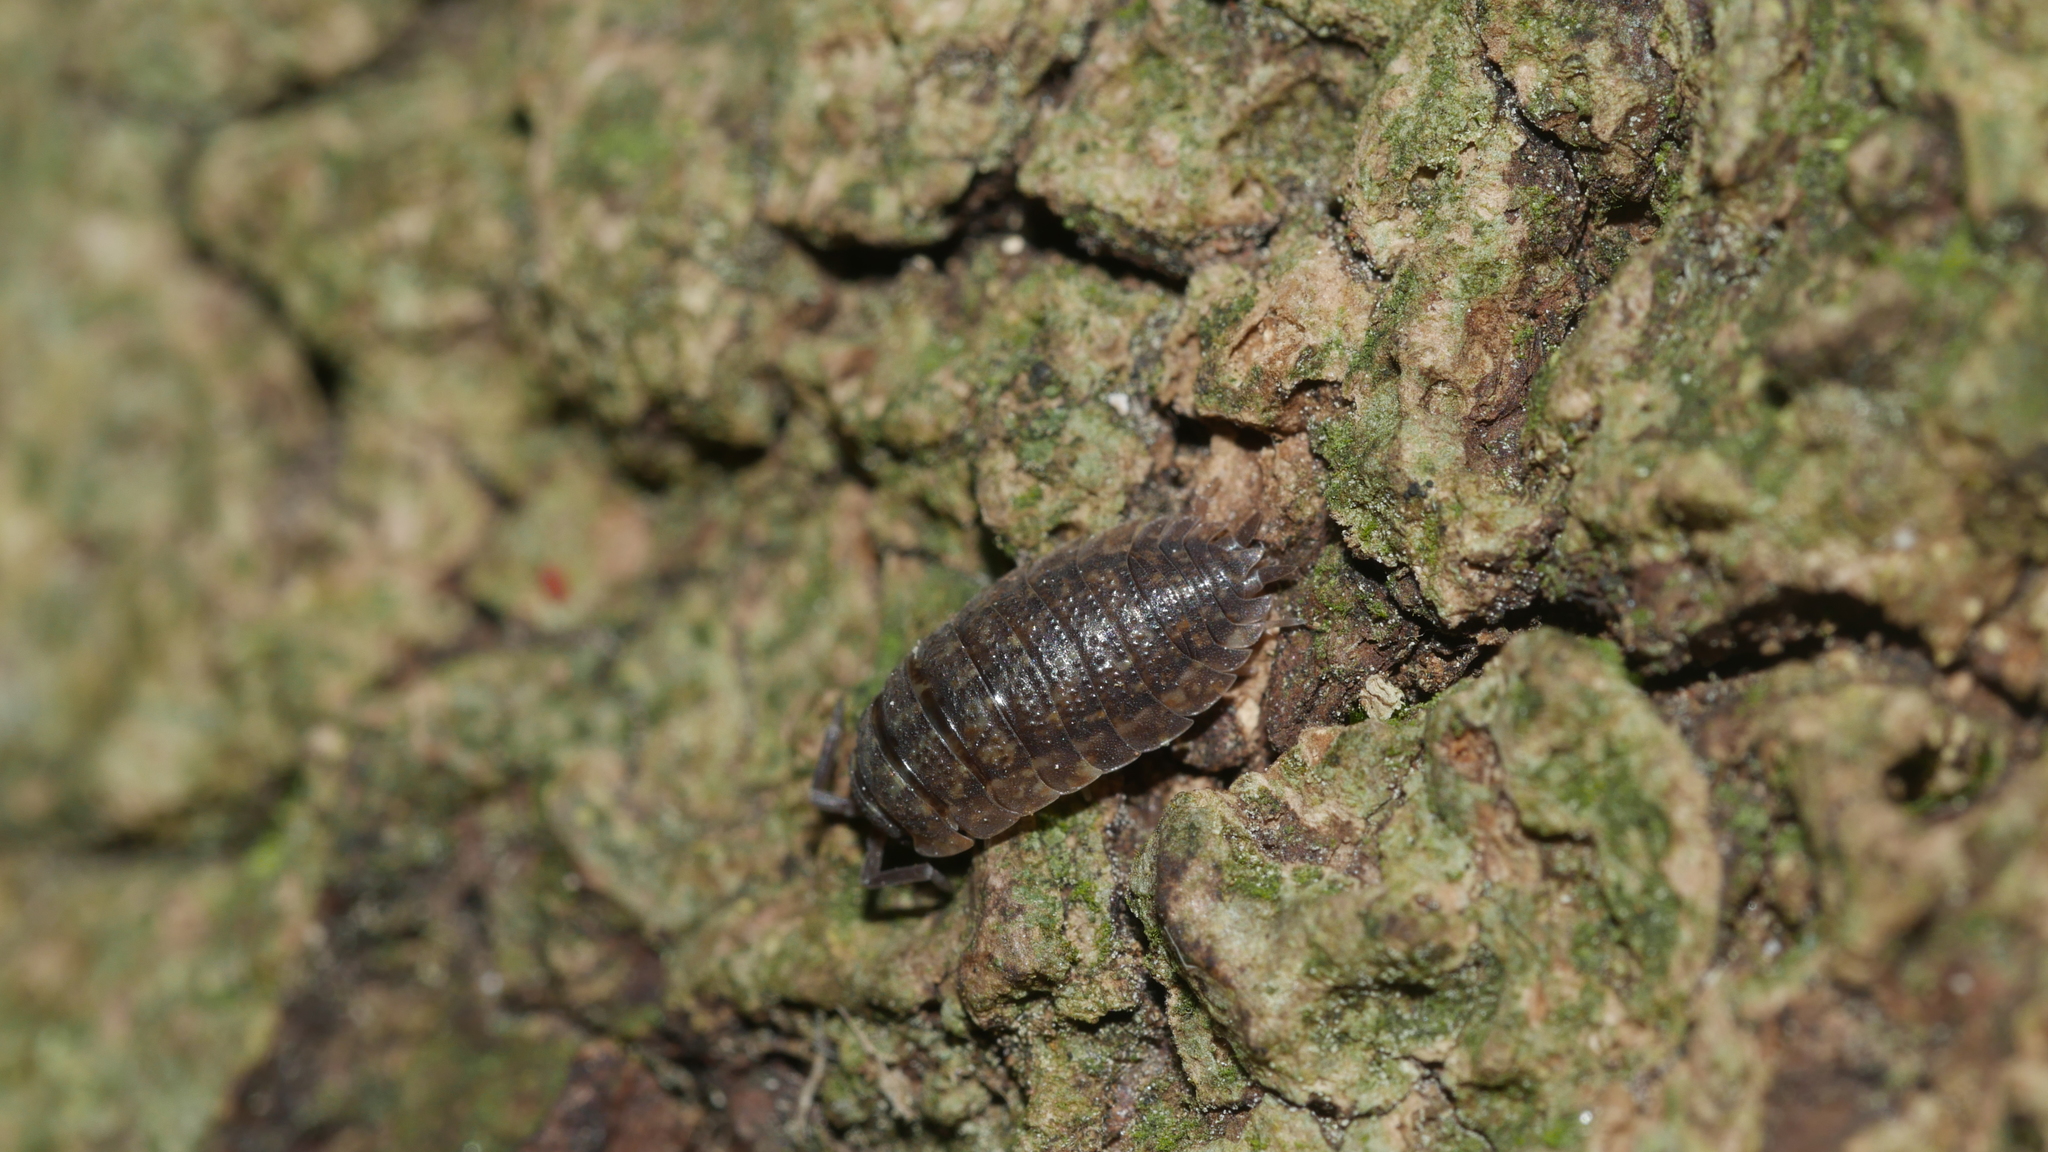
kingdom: Animalia
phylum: Arthropoda
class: Malacostraca
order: Isopoda
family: Porcellionidae
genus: Porcellio
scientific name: Porcellio scaber
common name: Common rough woodlouse
